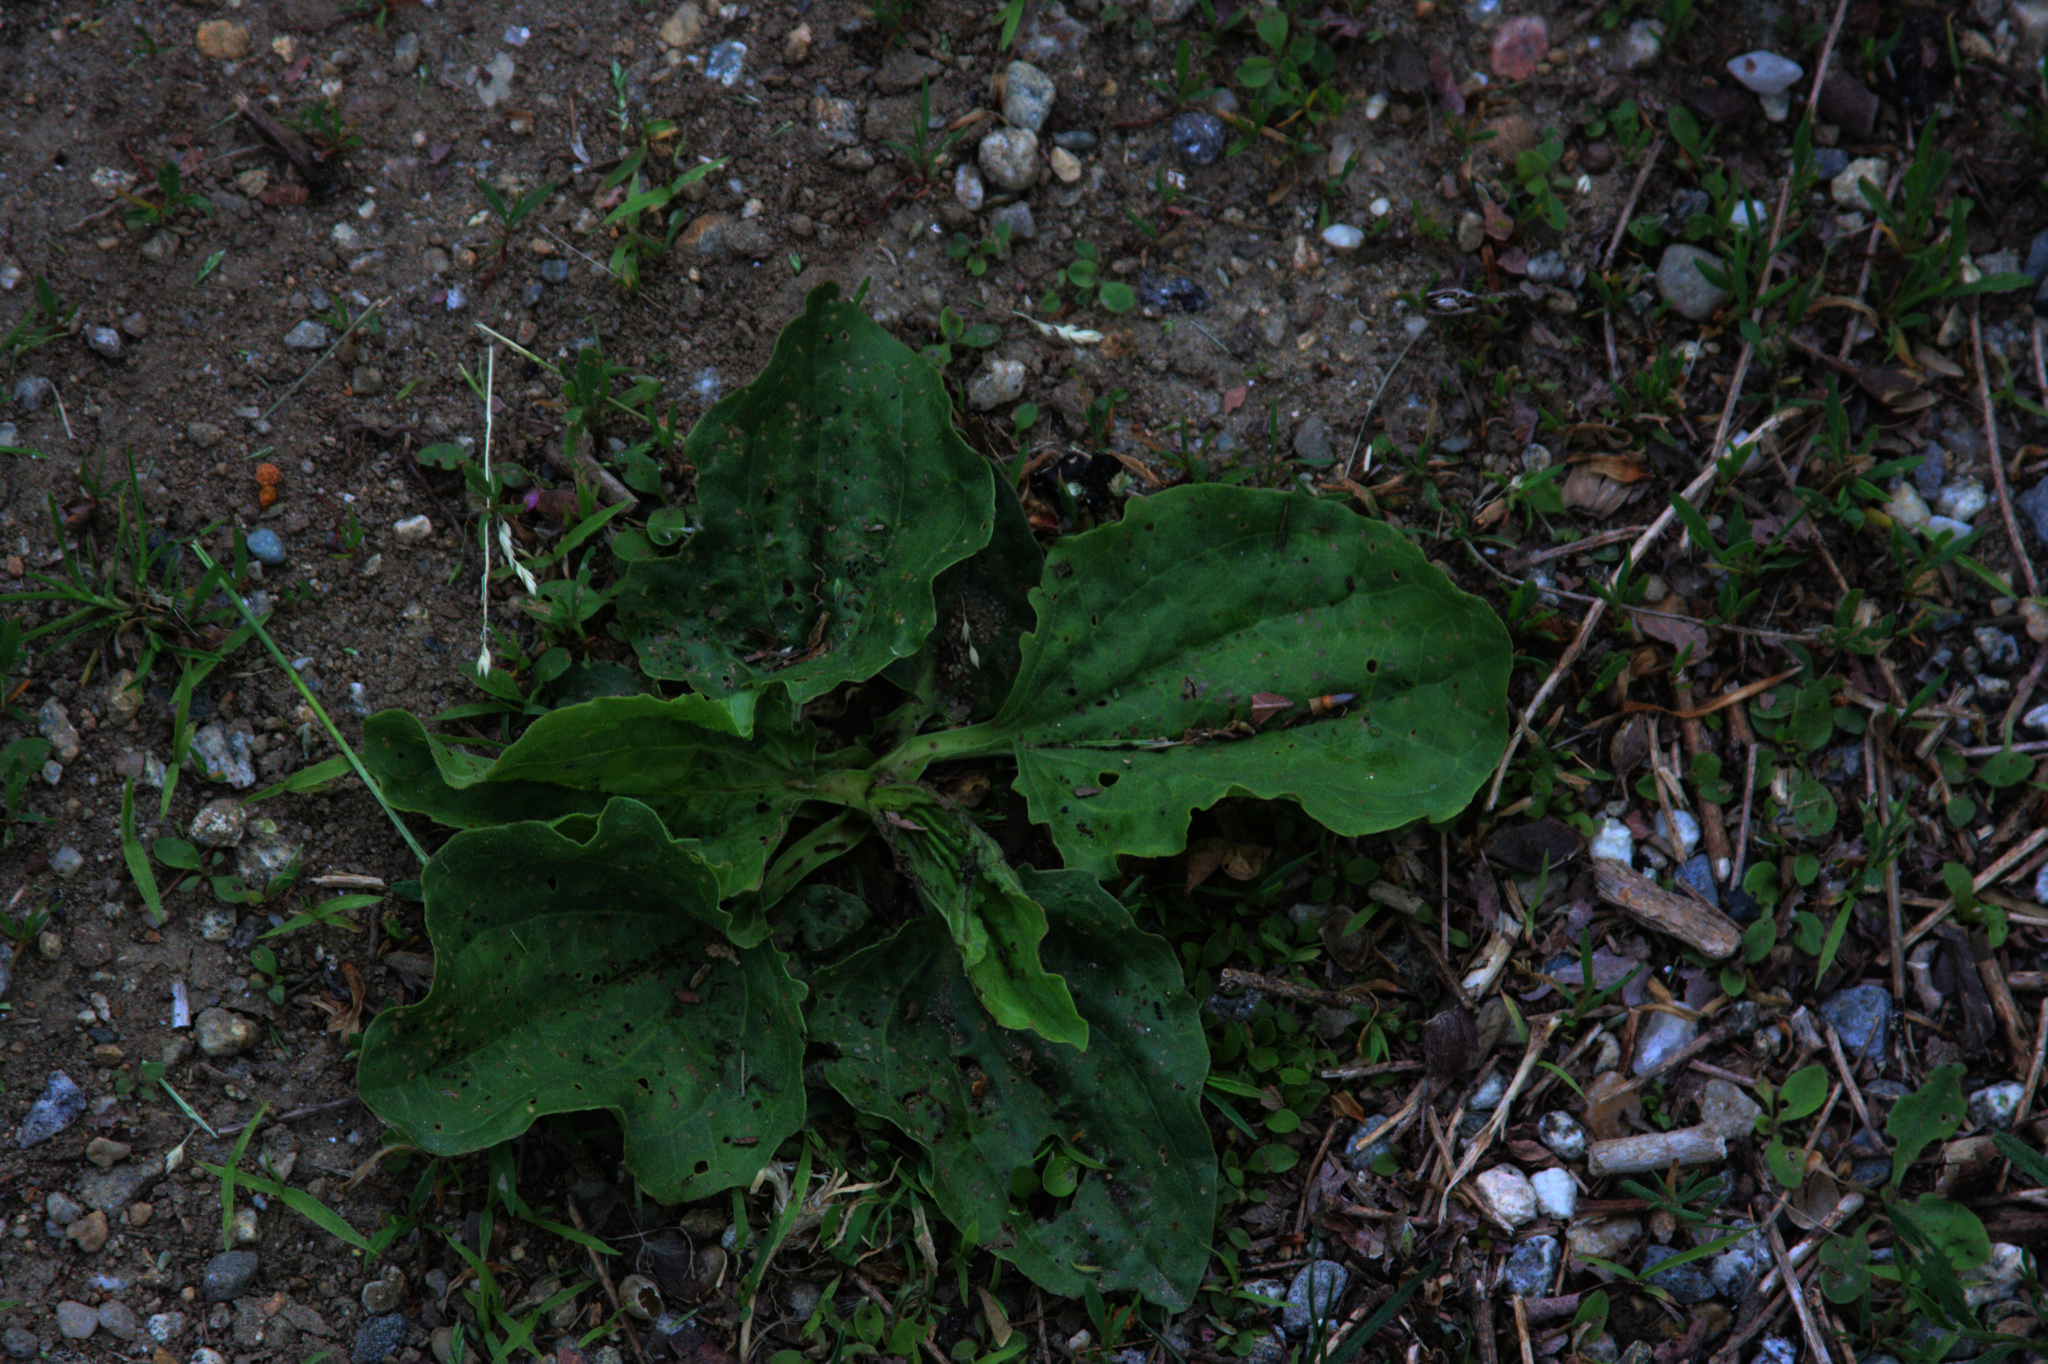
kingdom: Plantae
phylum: Tracheophyta
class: Magnoliopsida
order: Lamiales
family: Plantaginaceae
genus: Plantago
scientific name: Plantago major
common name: Common plantain
